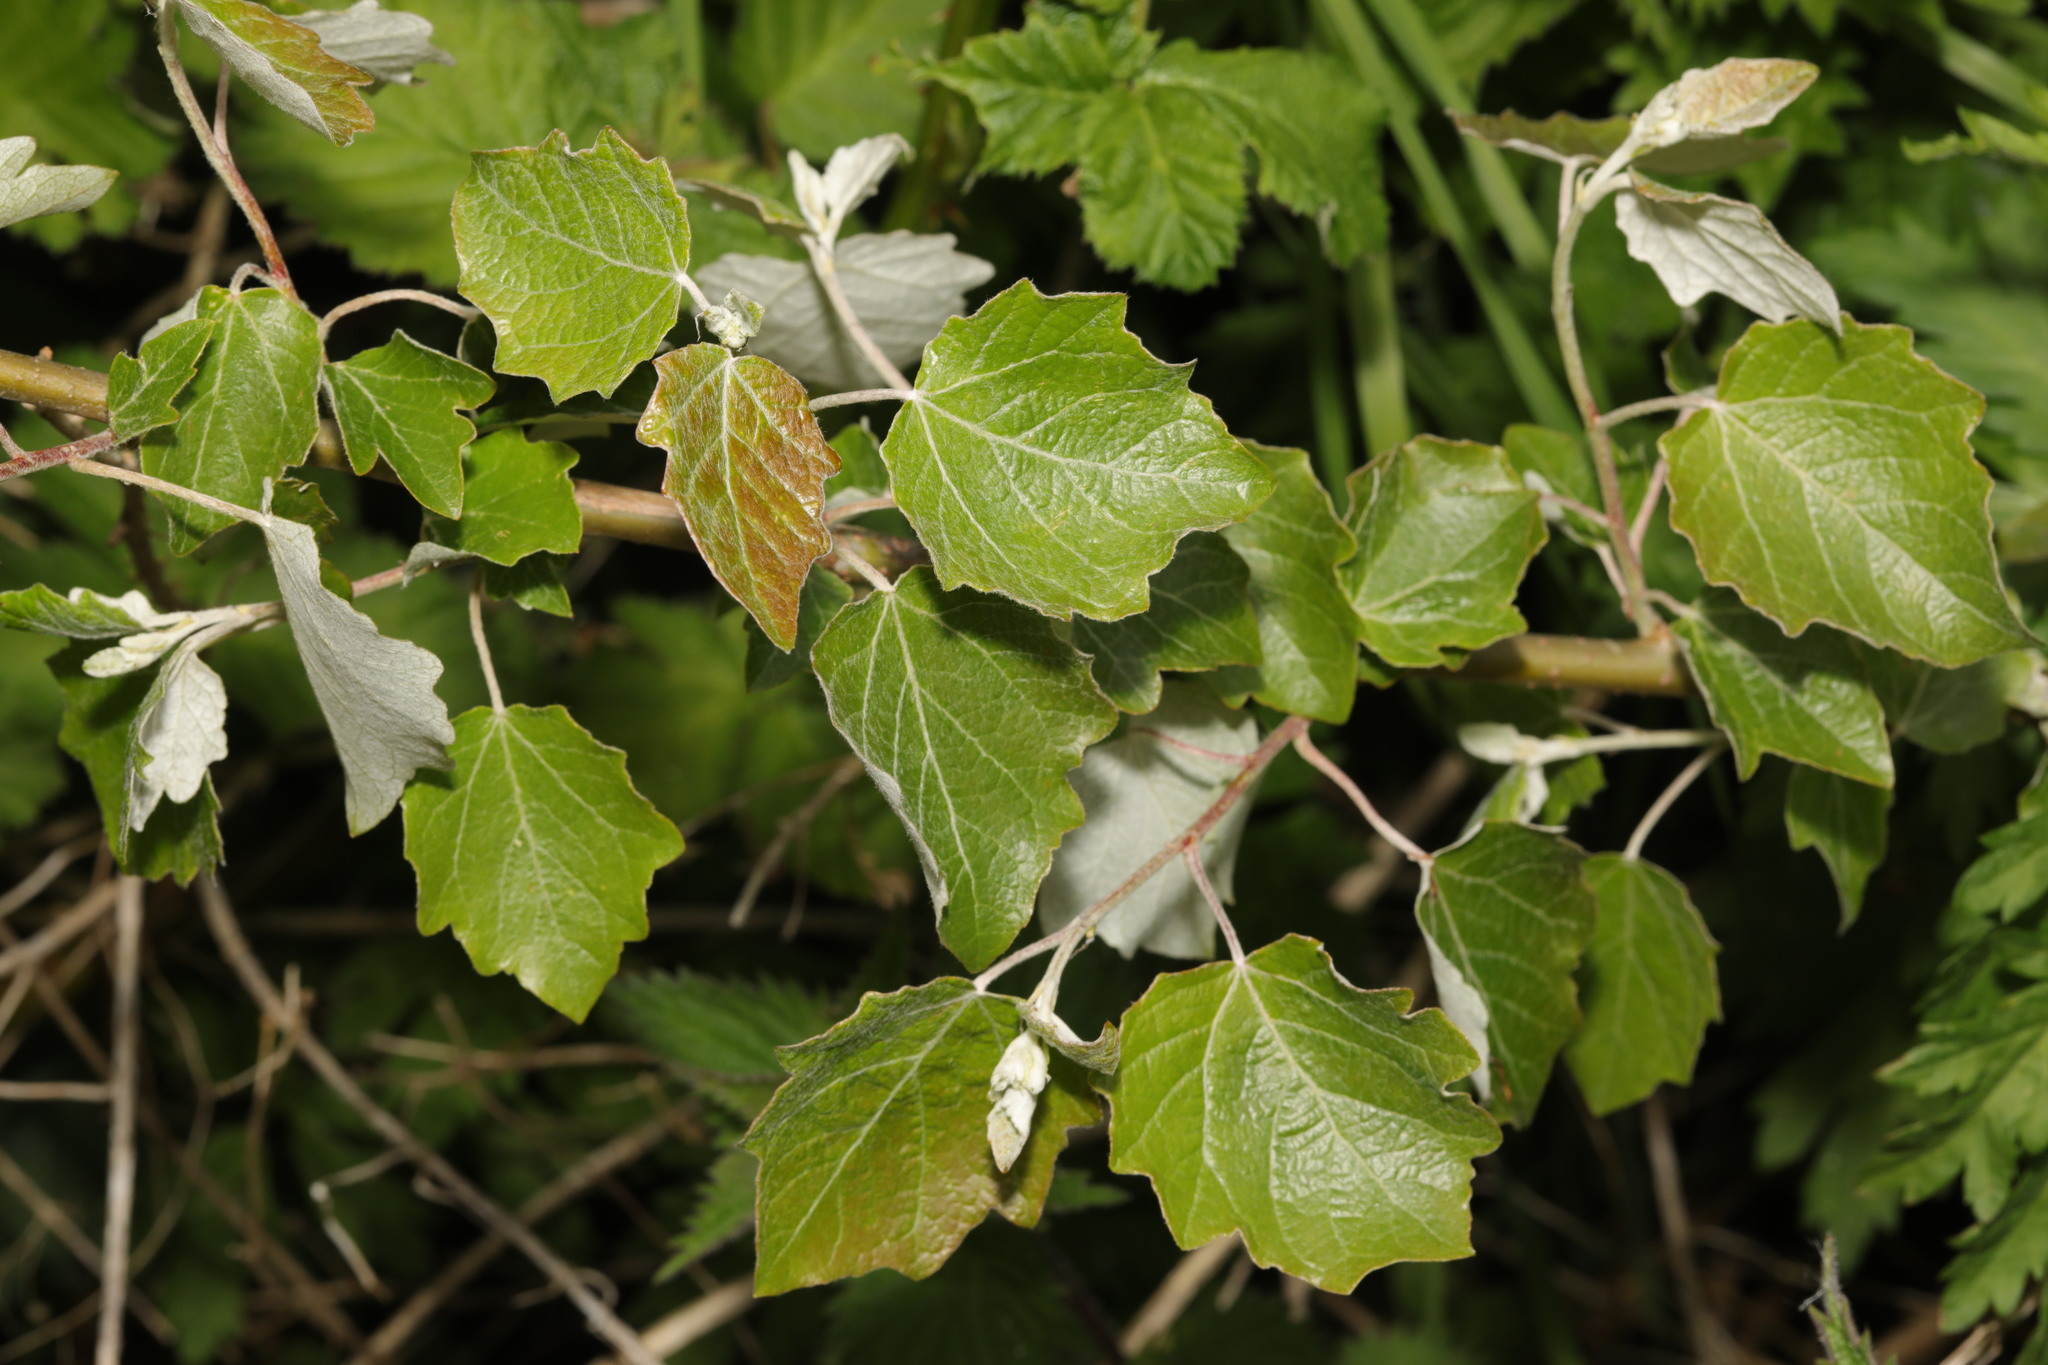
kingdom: Plantae
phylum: Tracheophyta
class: Magnoliopsida
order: Malpighiales
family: Salicaceae
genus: Populus
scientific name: Populus alba
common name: White poplar
